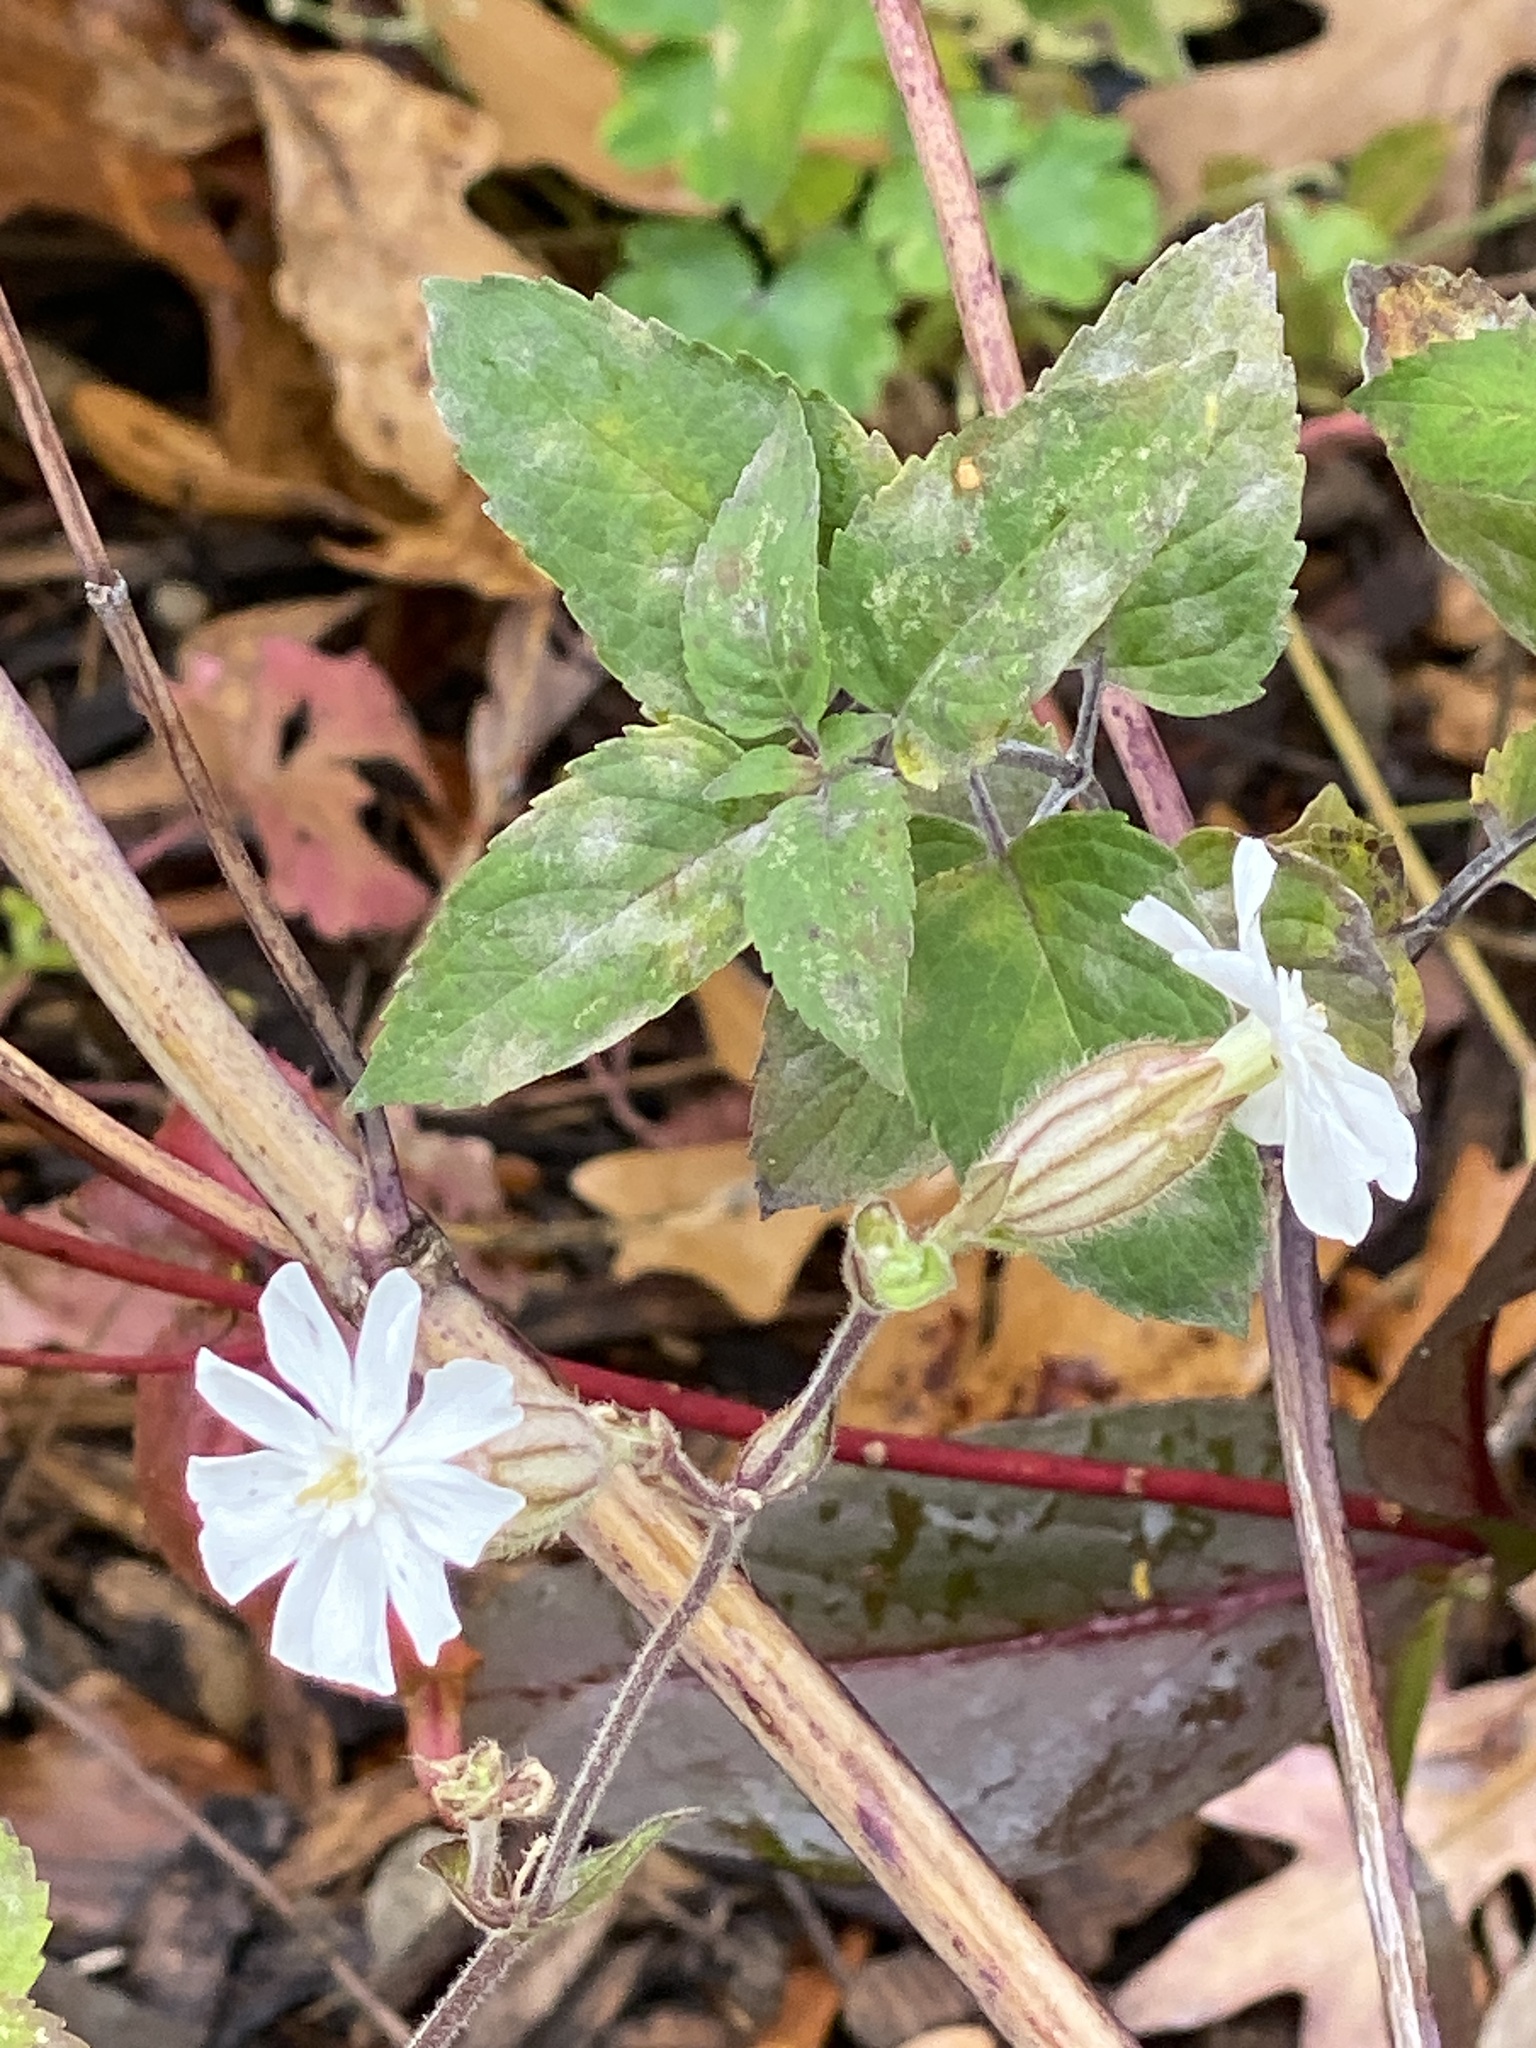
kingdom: Plantae
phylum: Tracheophyta
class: Magnoliopsida
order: Caryophyllales
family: Caryophyllaceae
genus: Silene
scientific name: Silene latifolia
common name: White campion
